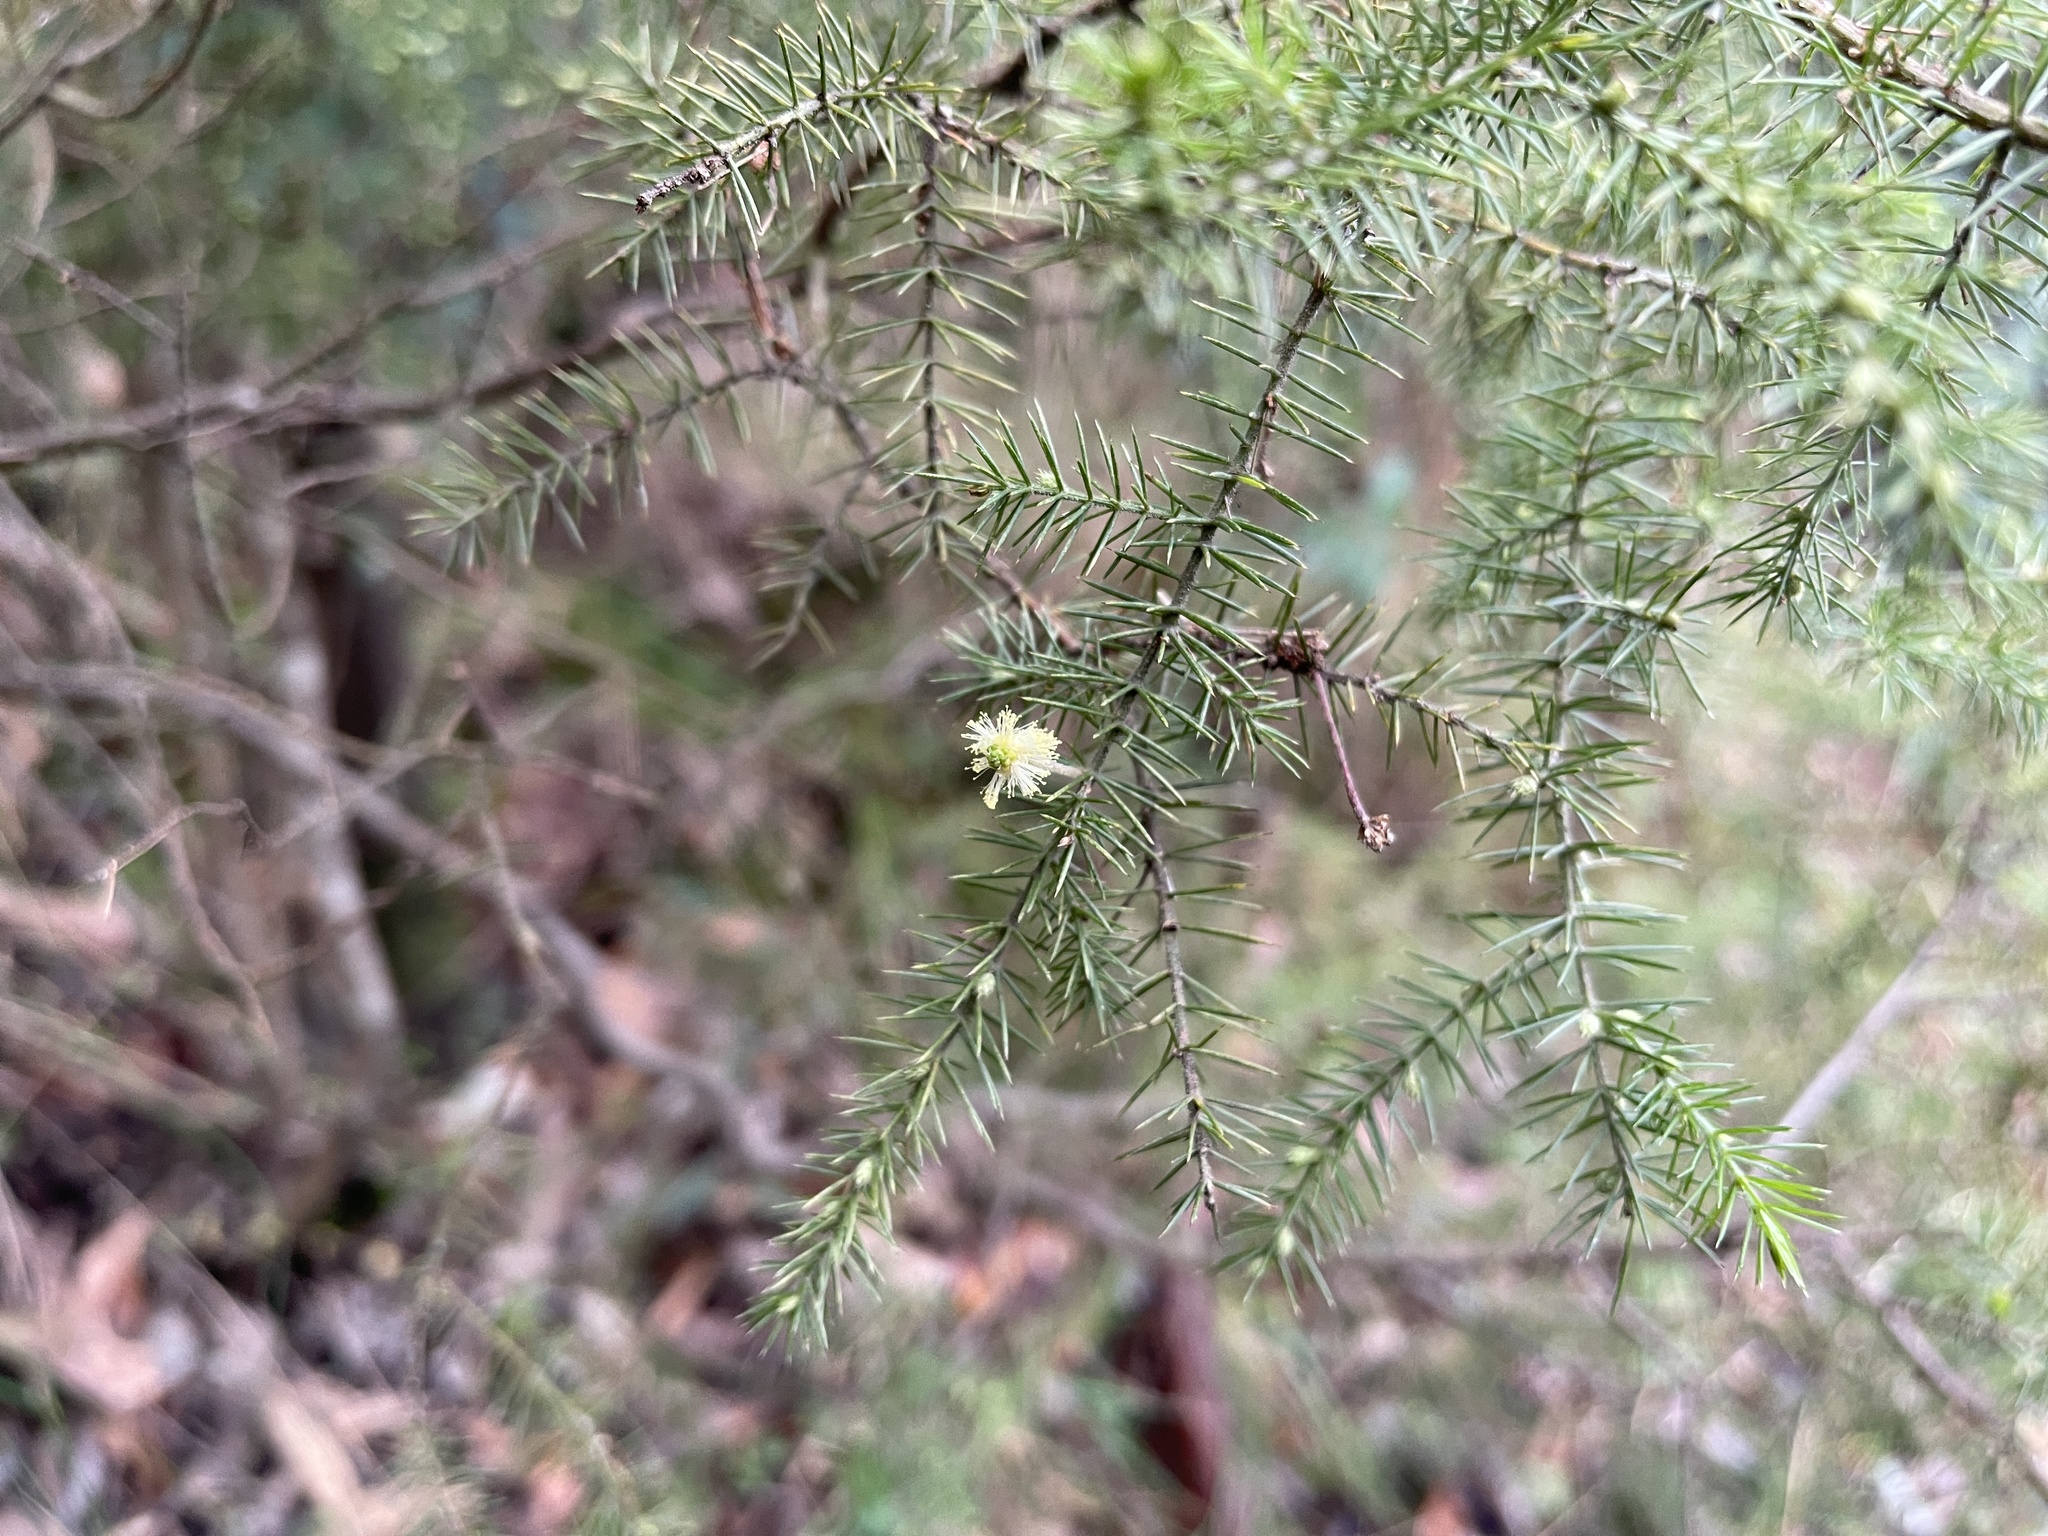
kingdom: Plantae
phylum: Tracheophyta
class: Magnoliopsida
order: Fabales
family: Fabaceae
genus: Acacia
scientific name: Acacia verticillata
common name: Prickly moses
